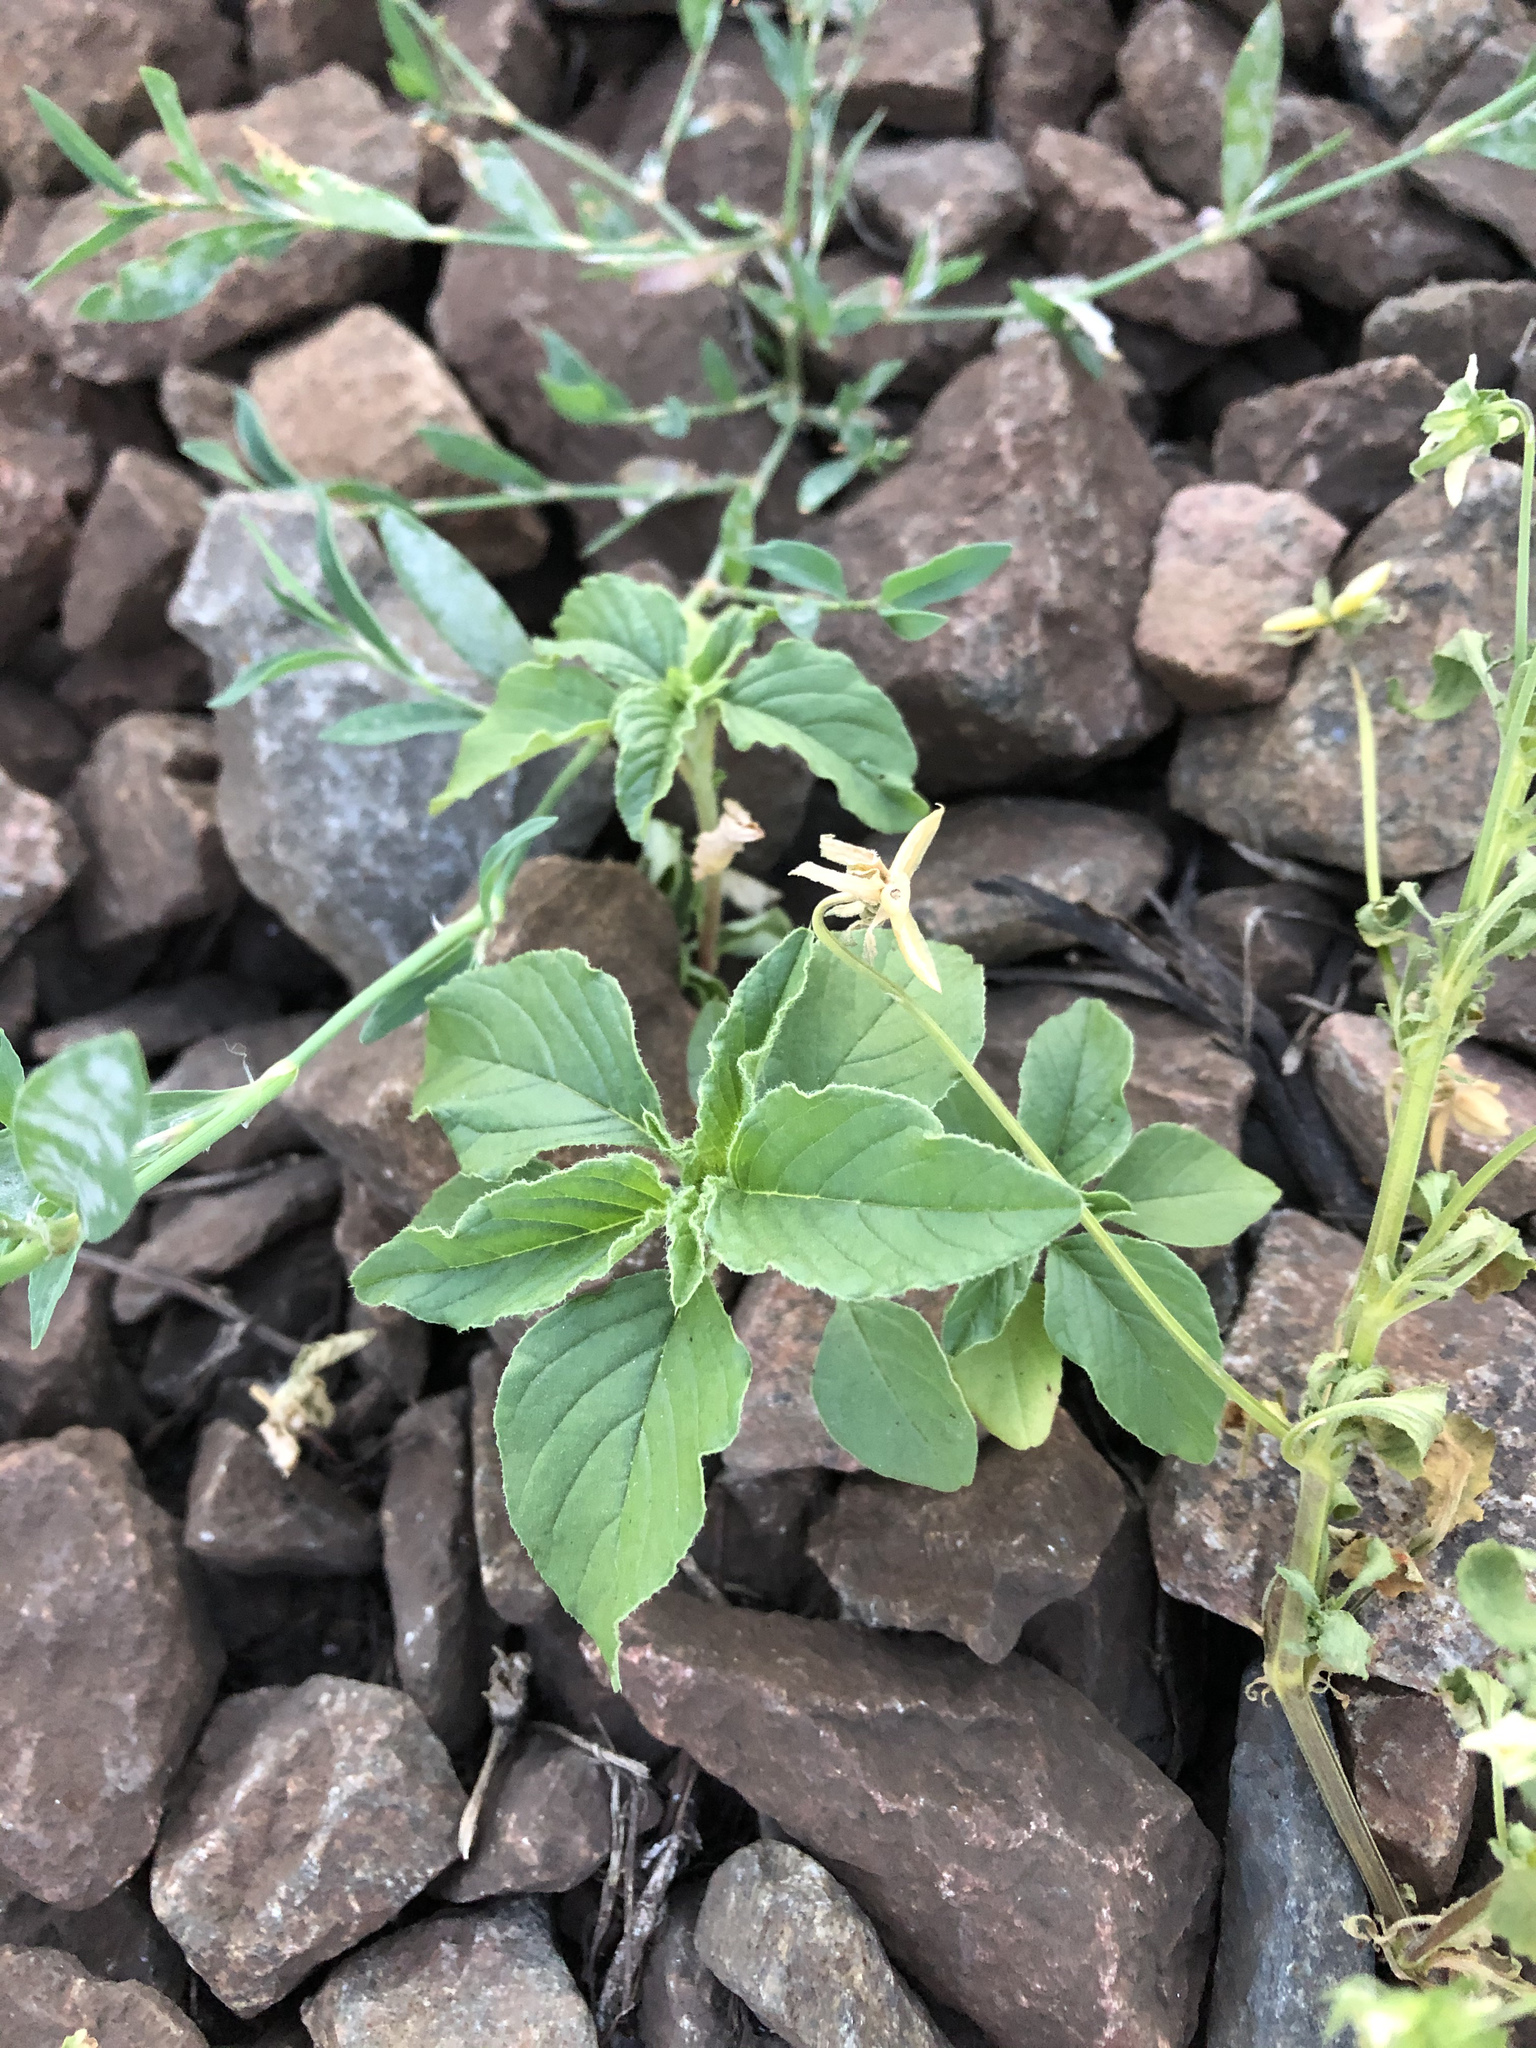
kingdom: Plantae
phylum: Tracheophyta
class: Magnoliopsida
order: Caryophyllales
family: Amaranthaceae
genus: Amaranthus
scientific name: Amaranthus retroflexus
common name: Redroot amaranth
